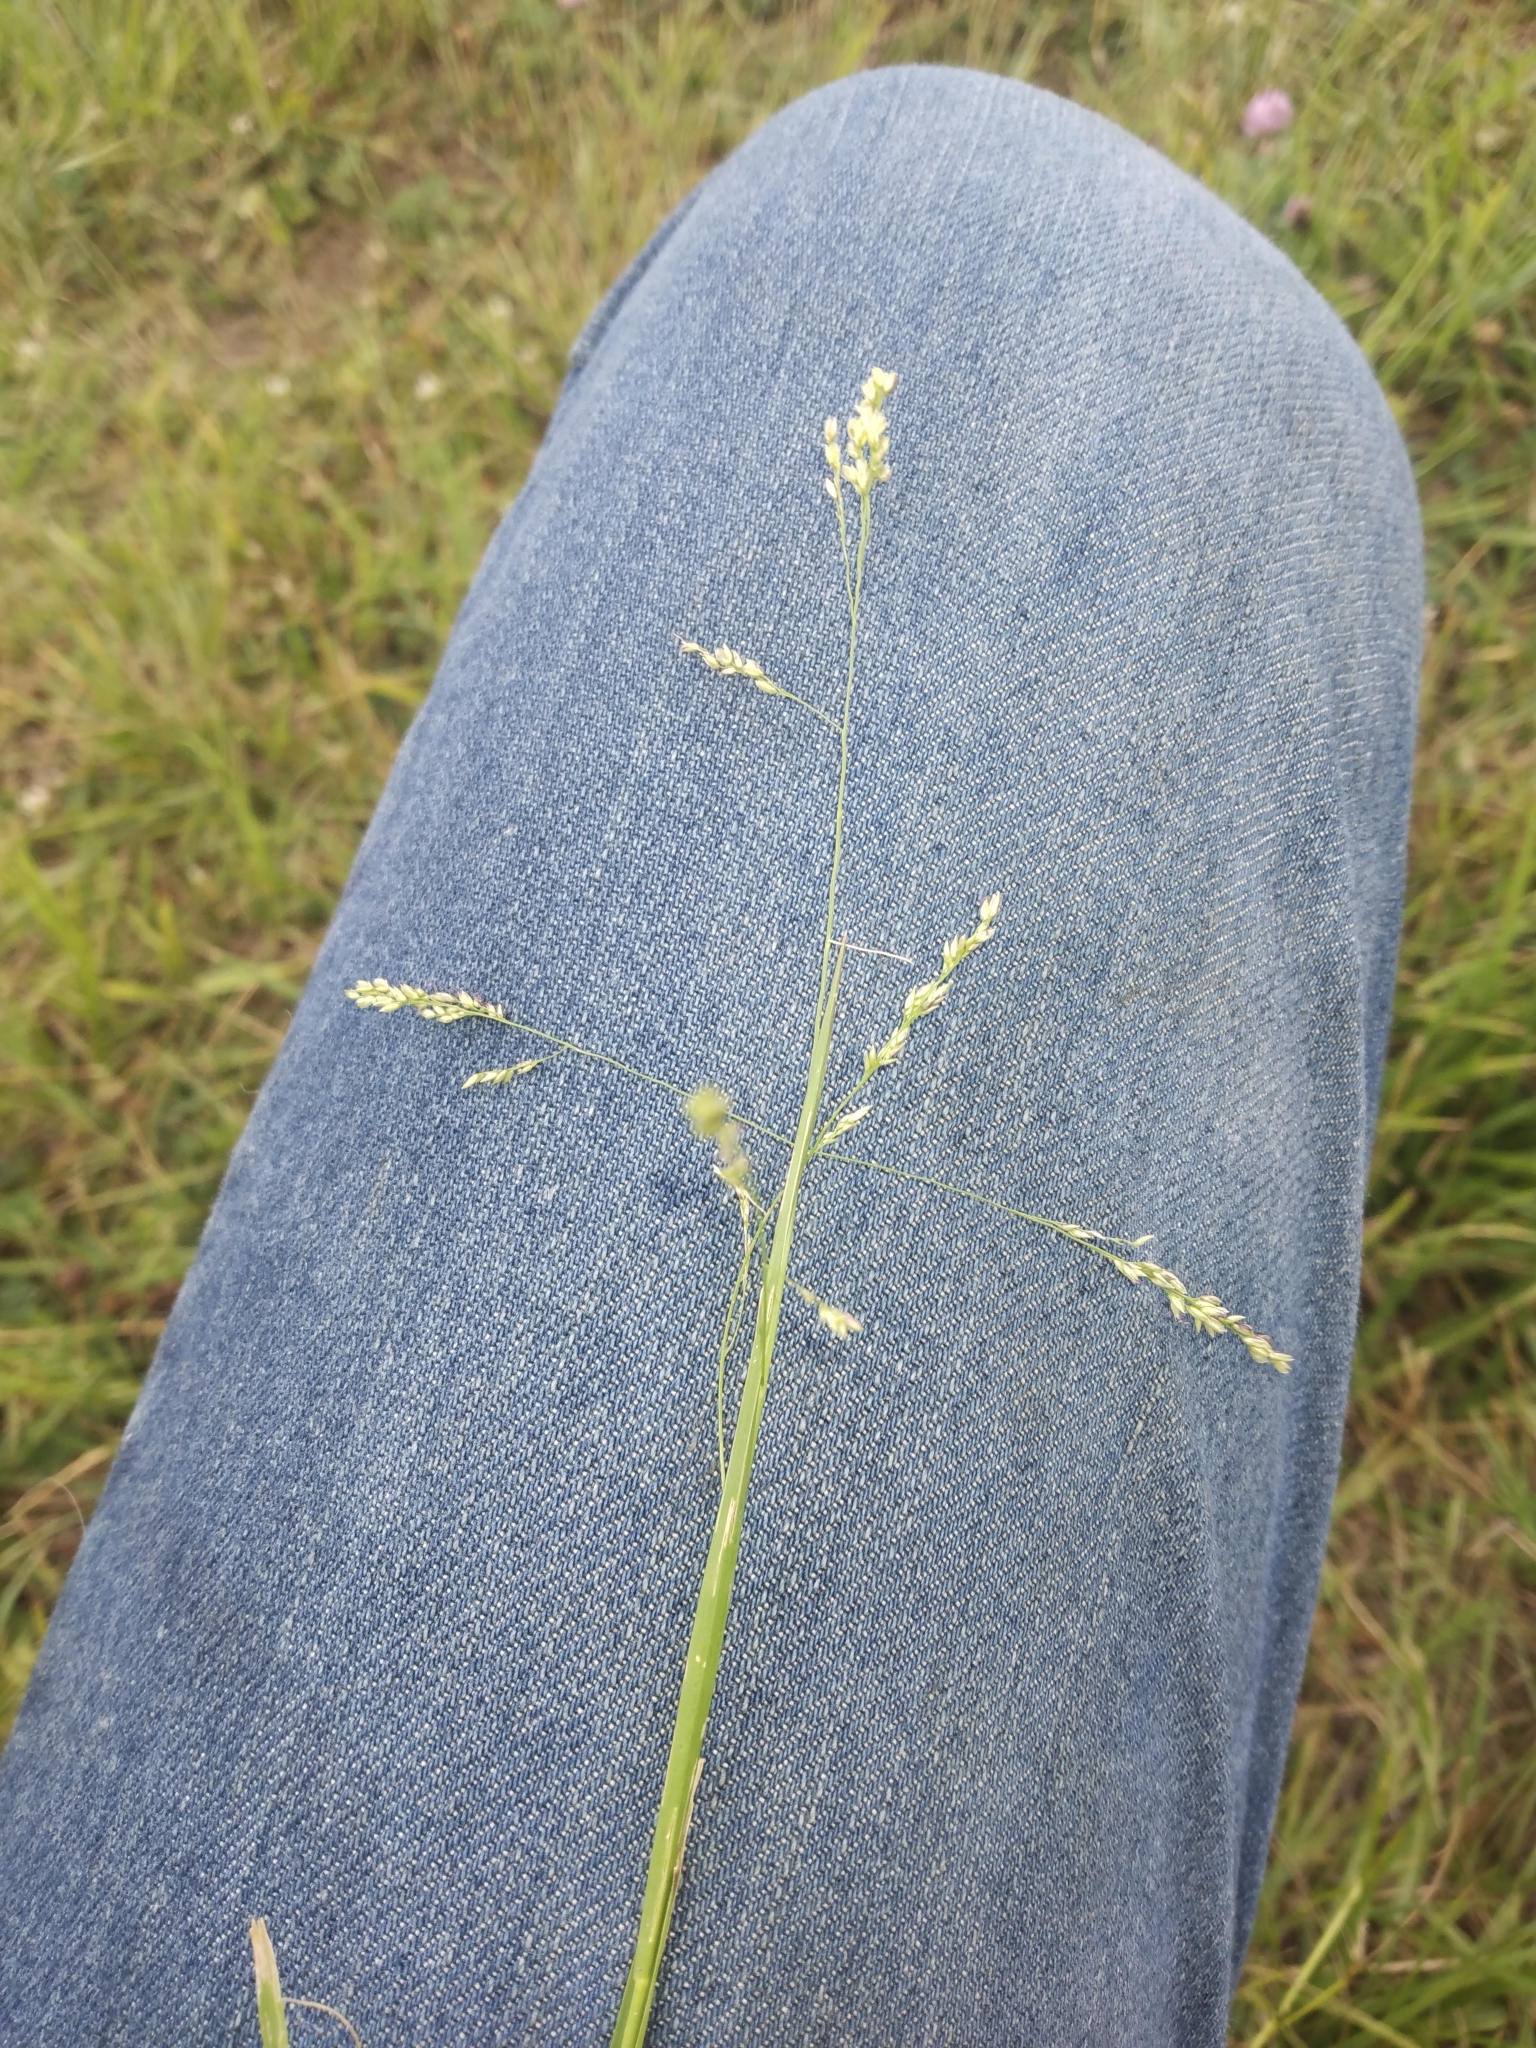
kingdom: Plantae
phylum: Tracheophyta
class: Liliopsida
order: Poales
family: Poaceae
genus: Steinchisma
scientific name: Steinchisma hians
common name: Gaping panic grass
